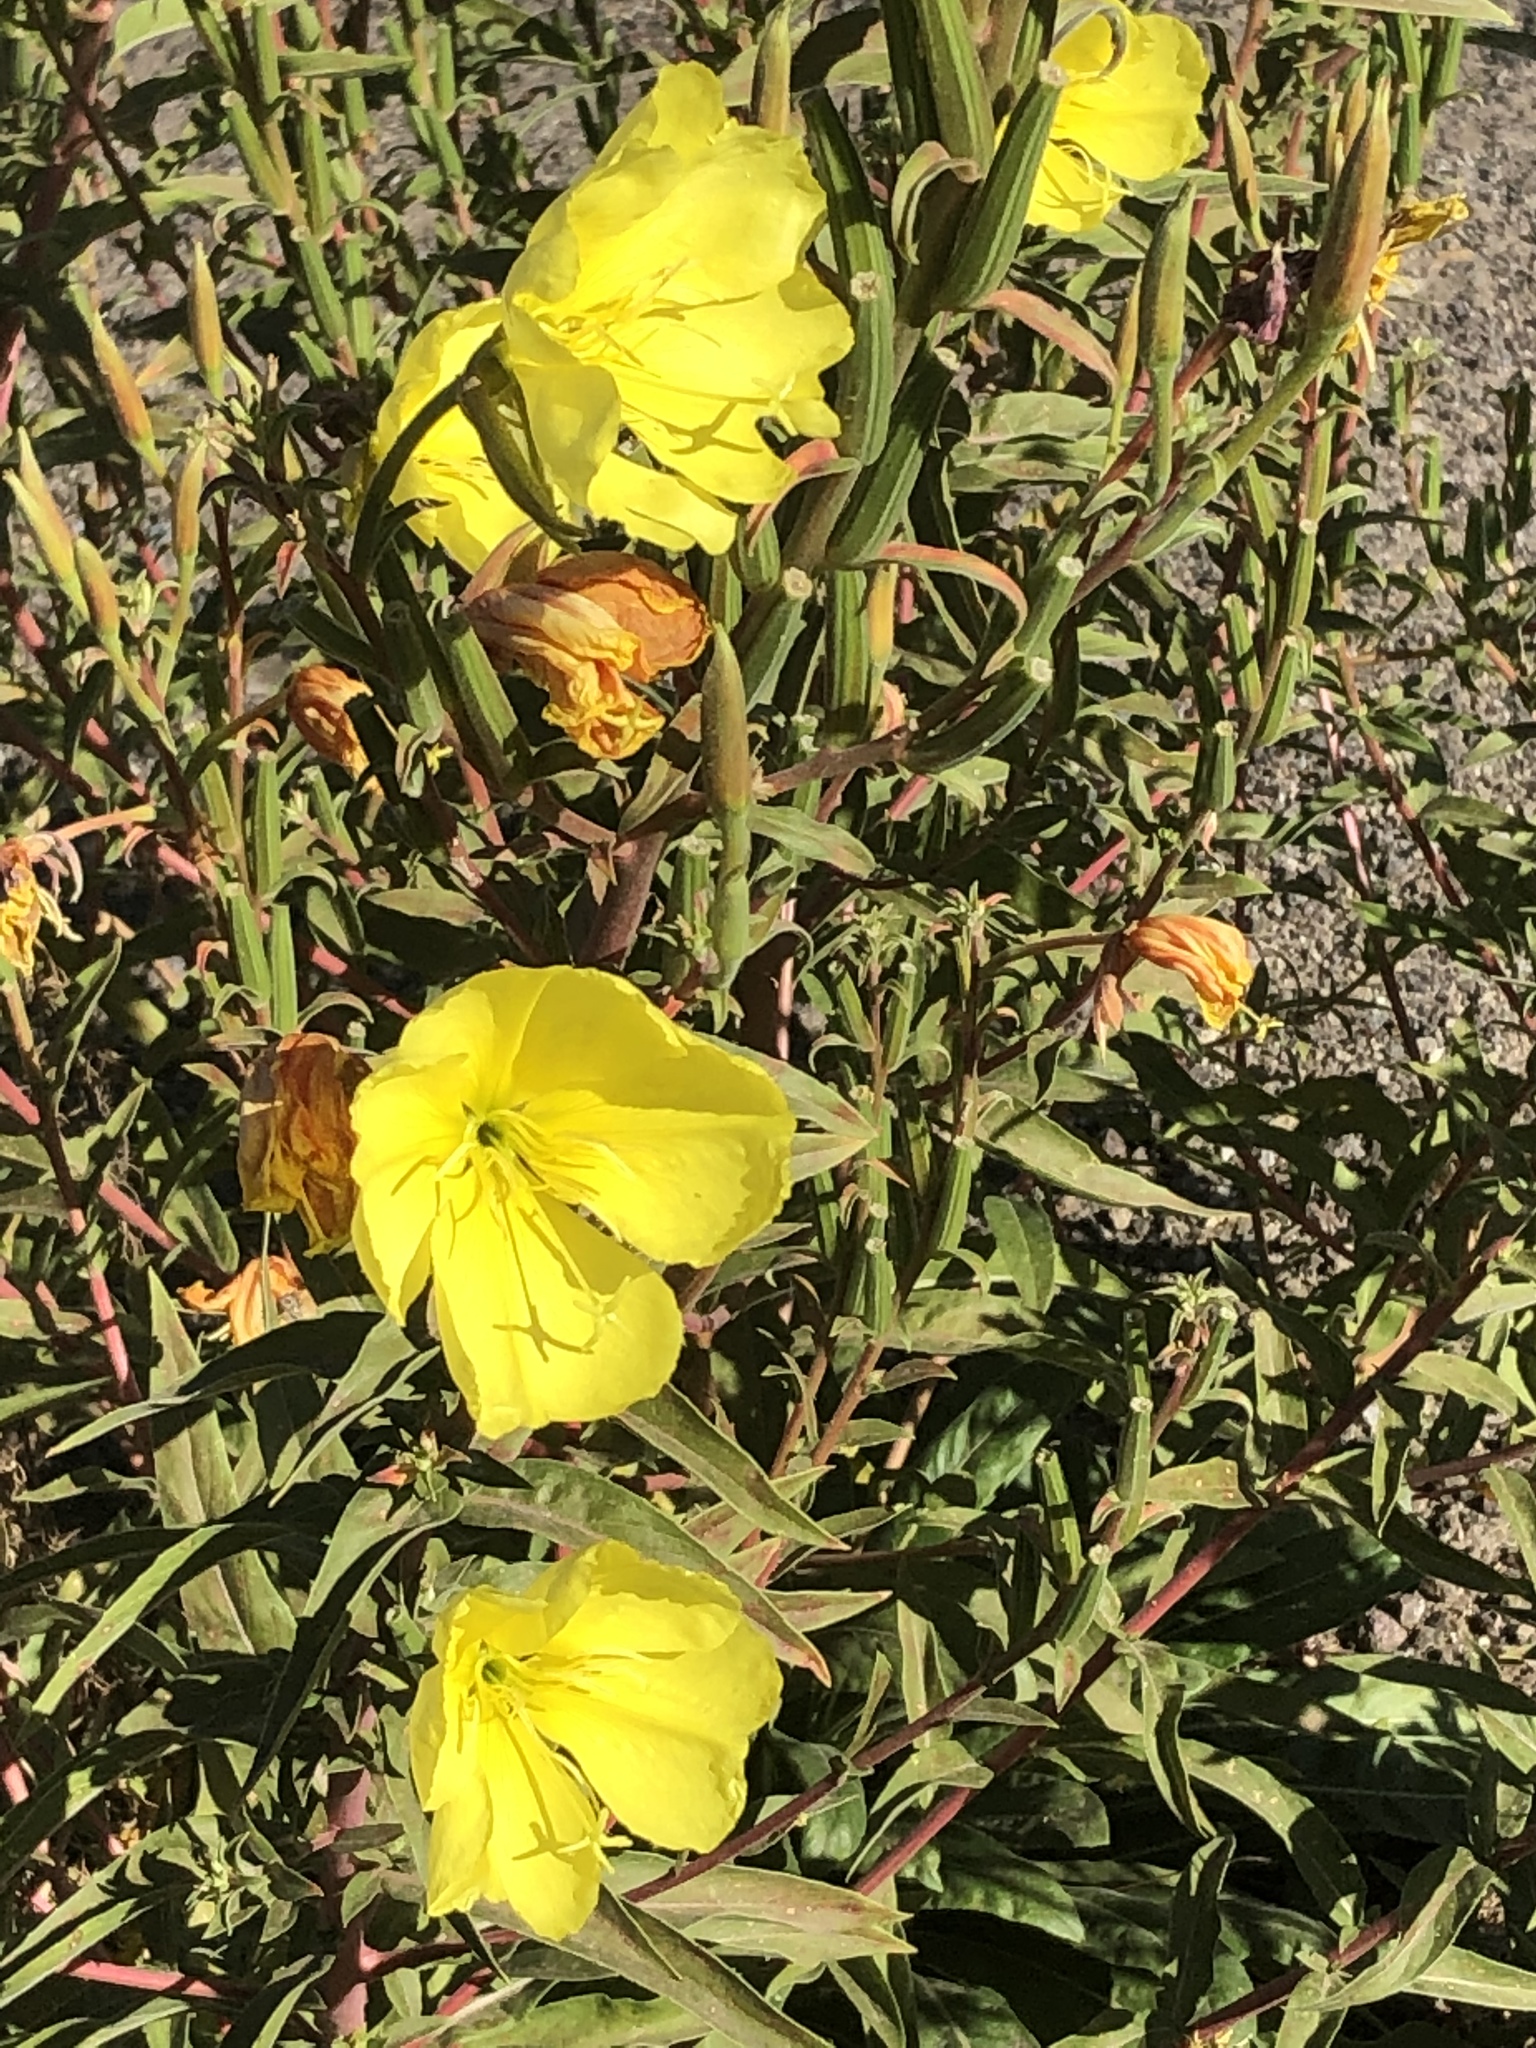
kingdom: Plantae
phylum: Tracheophyta
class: Magnoliopsida
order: Myrtales
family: Onagraceae
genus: Oenothera
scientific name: Oenothera elata
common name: Hooker's evening-primrose
